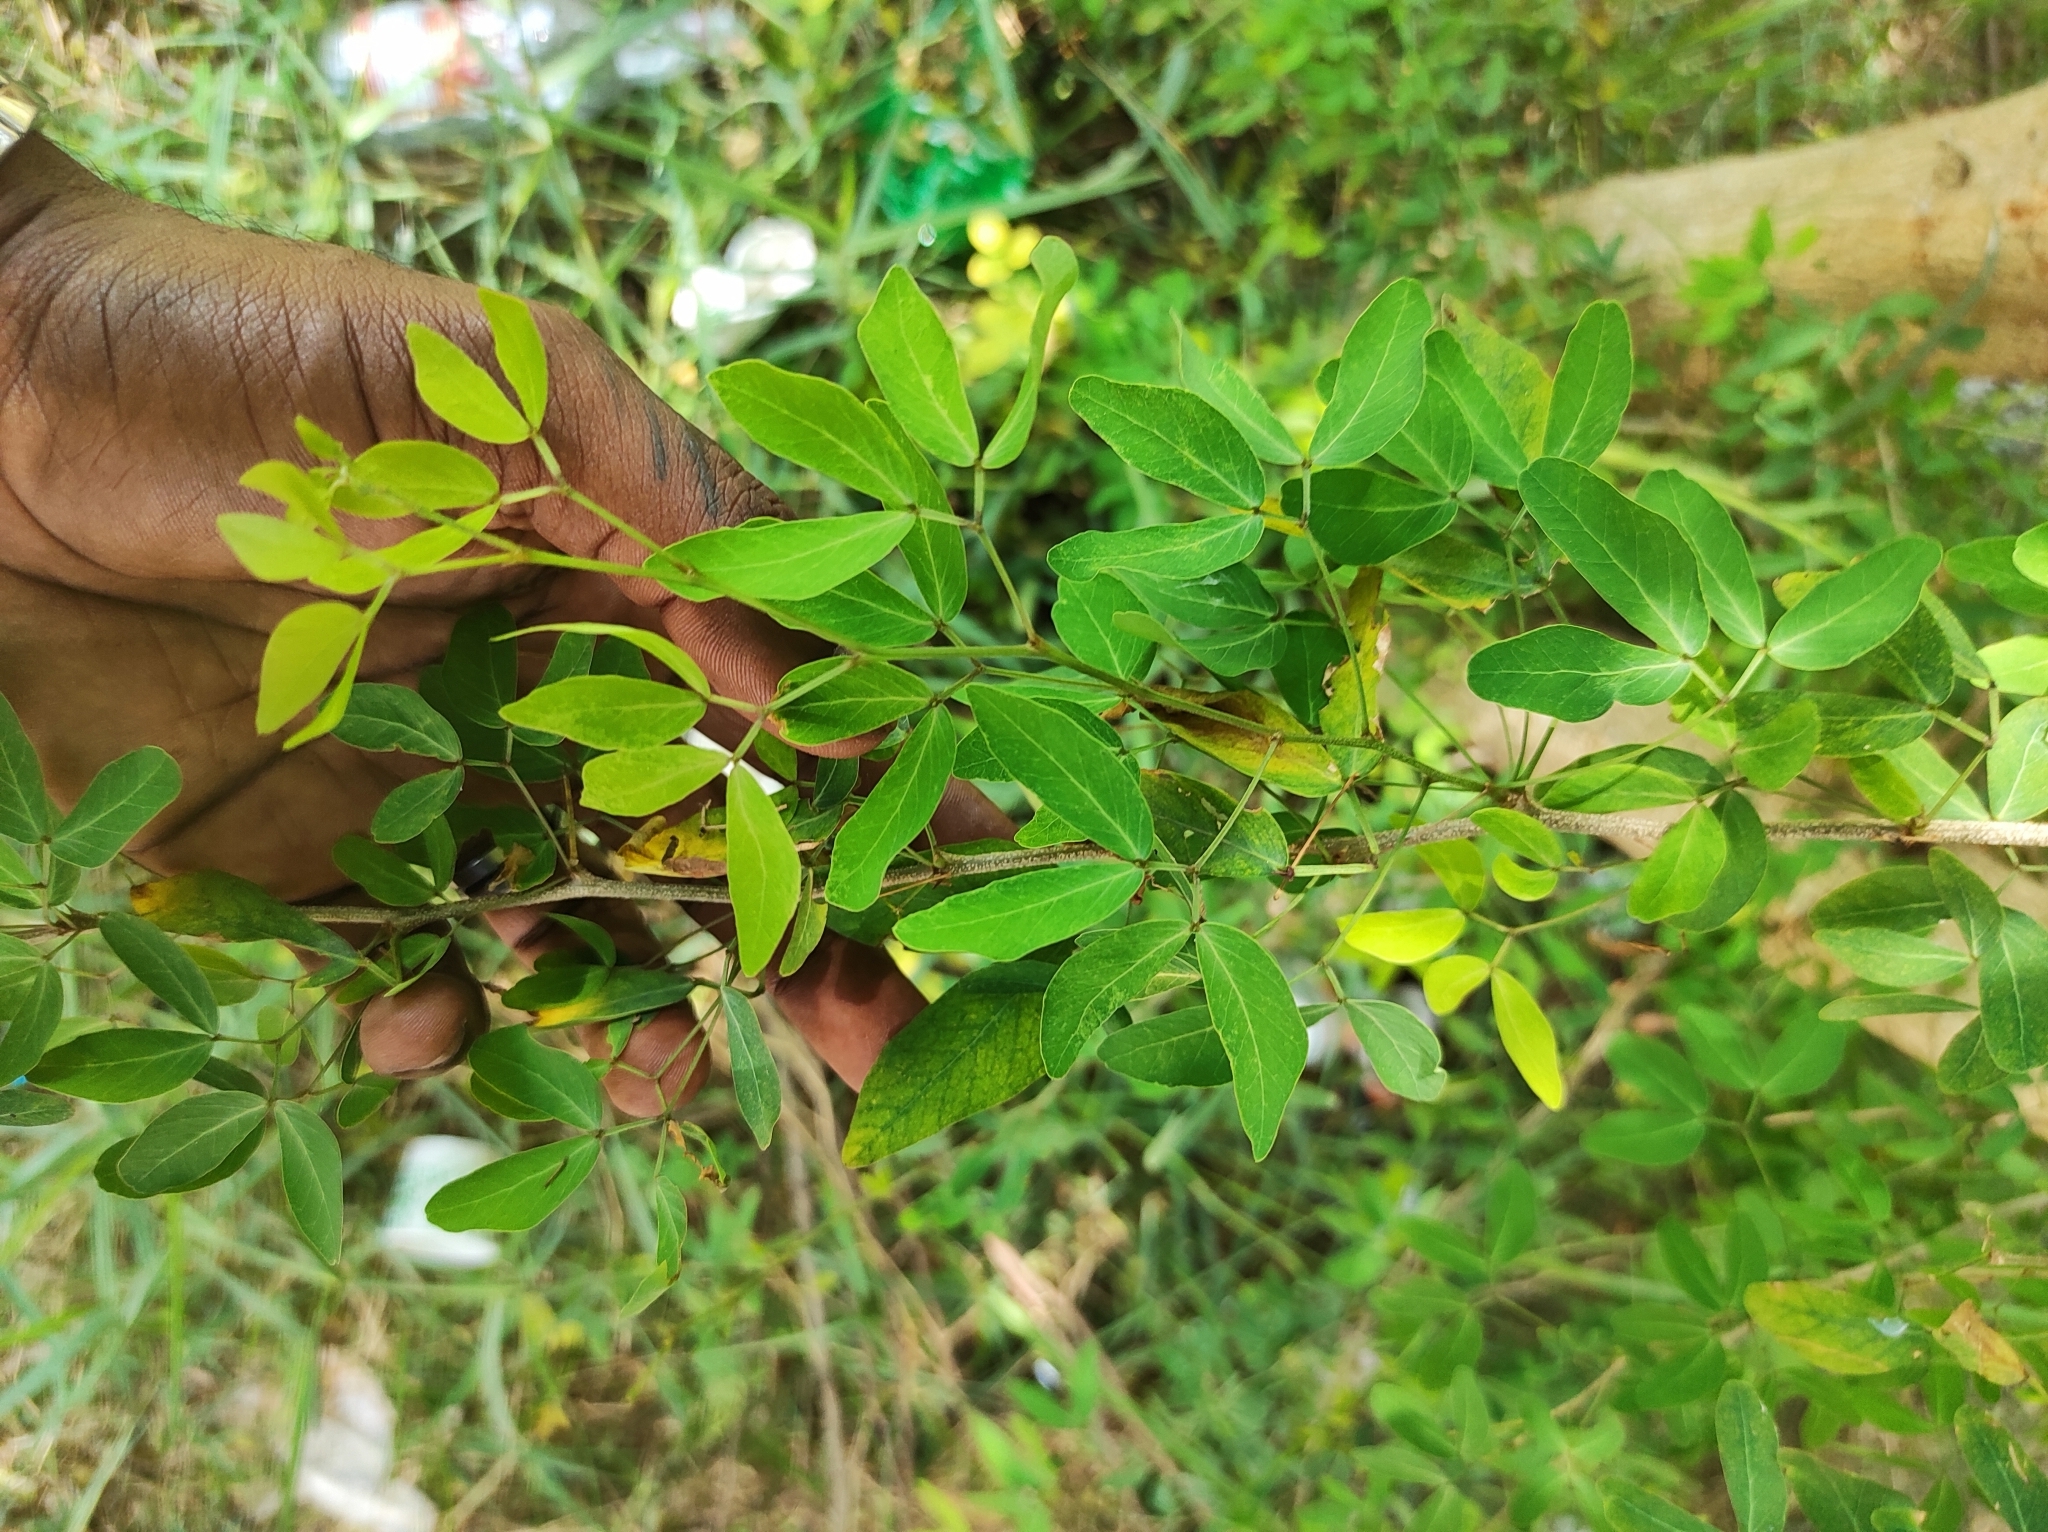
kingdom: Plantae
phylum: Tracheophyta
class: Magnoliopsida
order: Fabales
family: Fabaceae
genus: Pithecellobium
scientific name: Pithecellobium dulce
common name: Monkeypod
